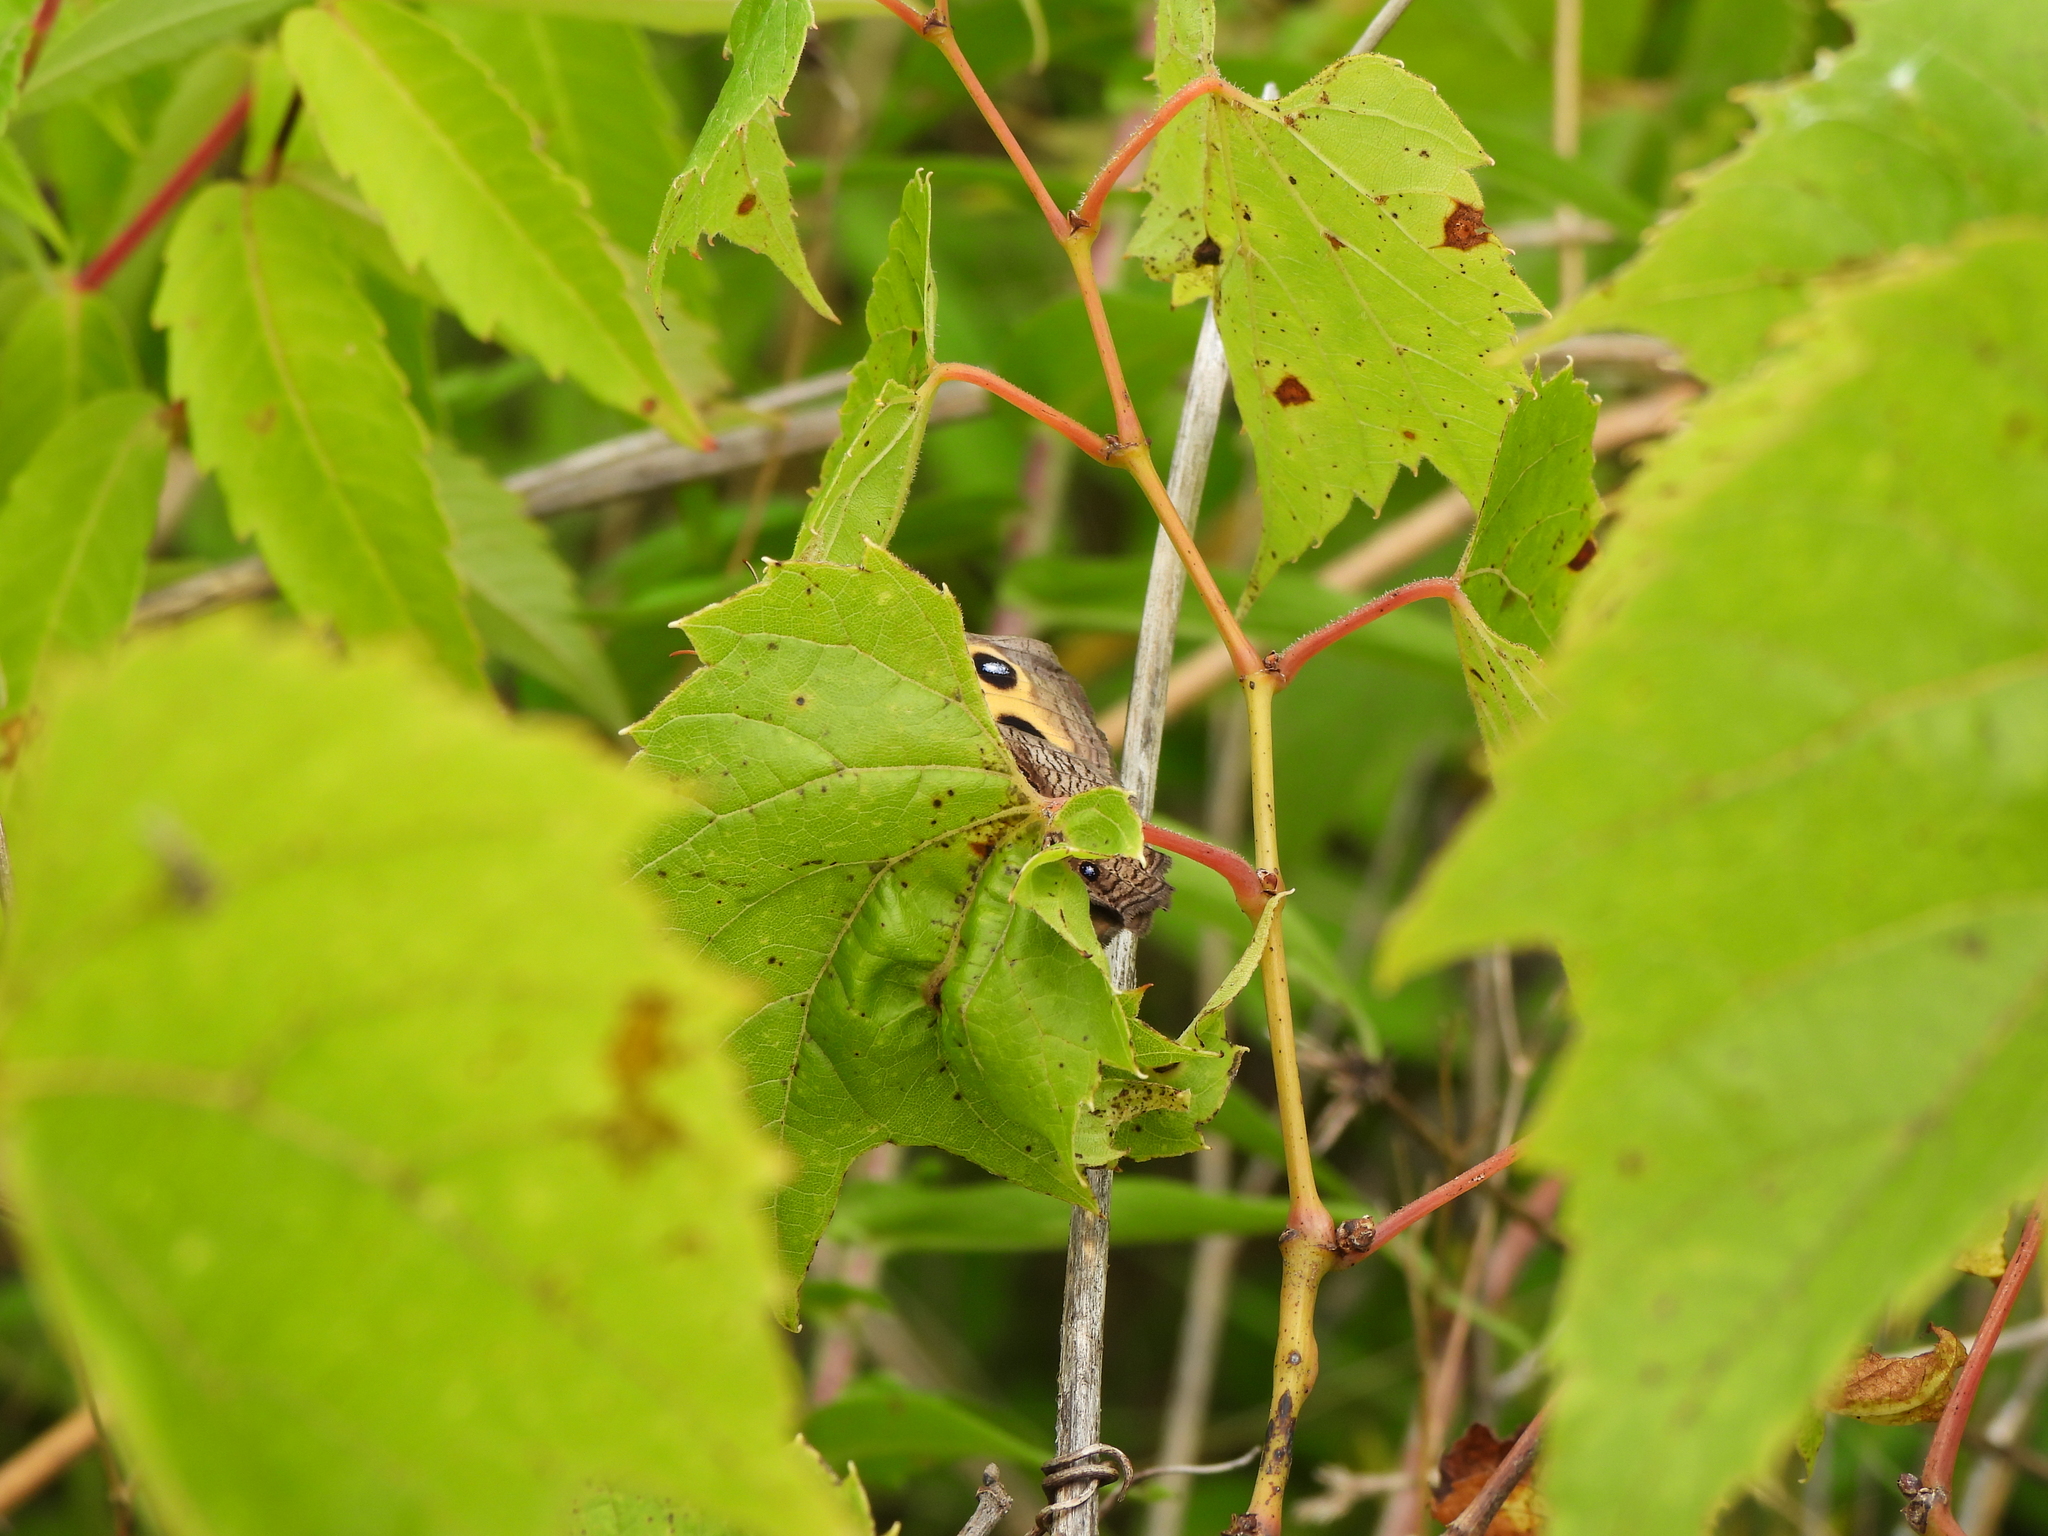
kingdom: Animalia
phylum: Arthropoda
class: Insecta
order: Lepidoptera
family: Nymphalidae
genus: Cercyonis
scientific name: Cercyonis pegala
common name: Common wood-nymph
